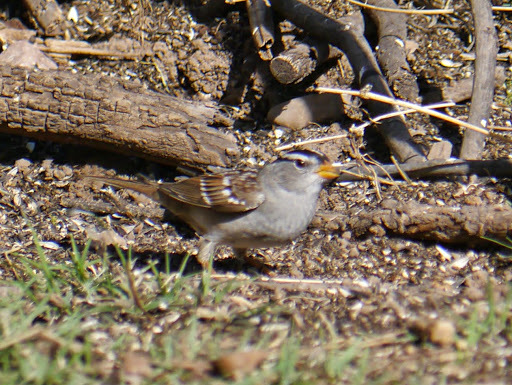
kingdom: Animalia
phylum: Chordata
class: Aves
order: Passeriformes
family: Passerellidae
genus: Zonotrichia
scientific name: Zonotrichia leucophrys
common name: White-crowned sparrow
